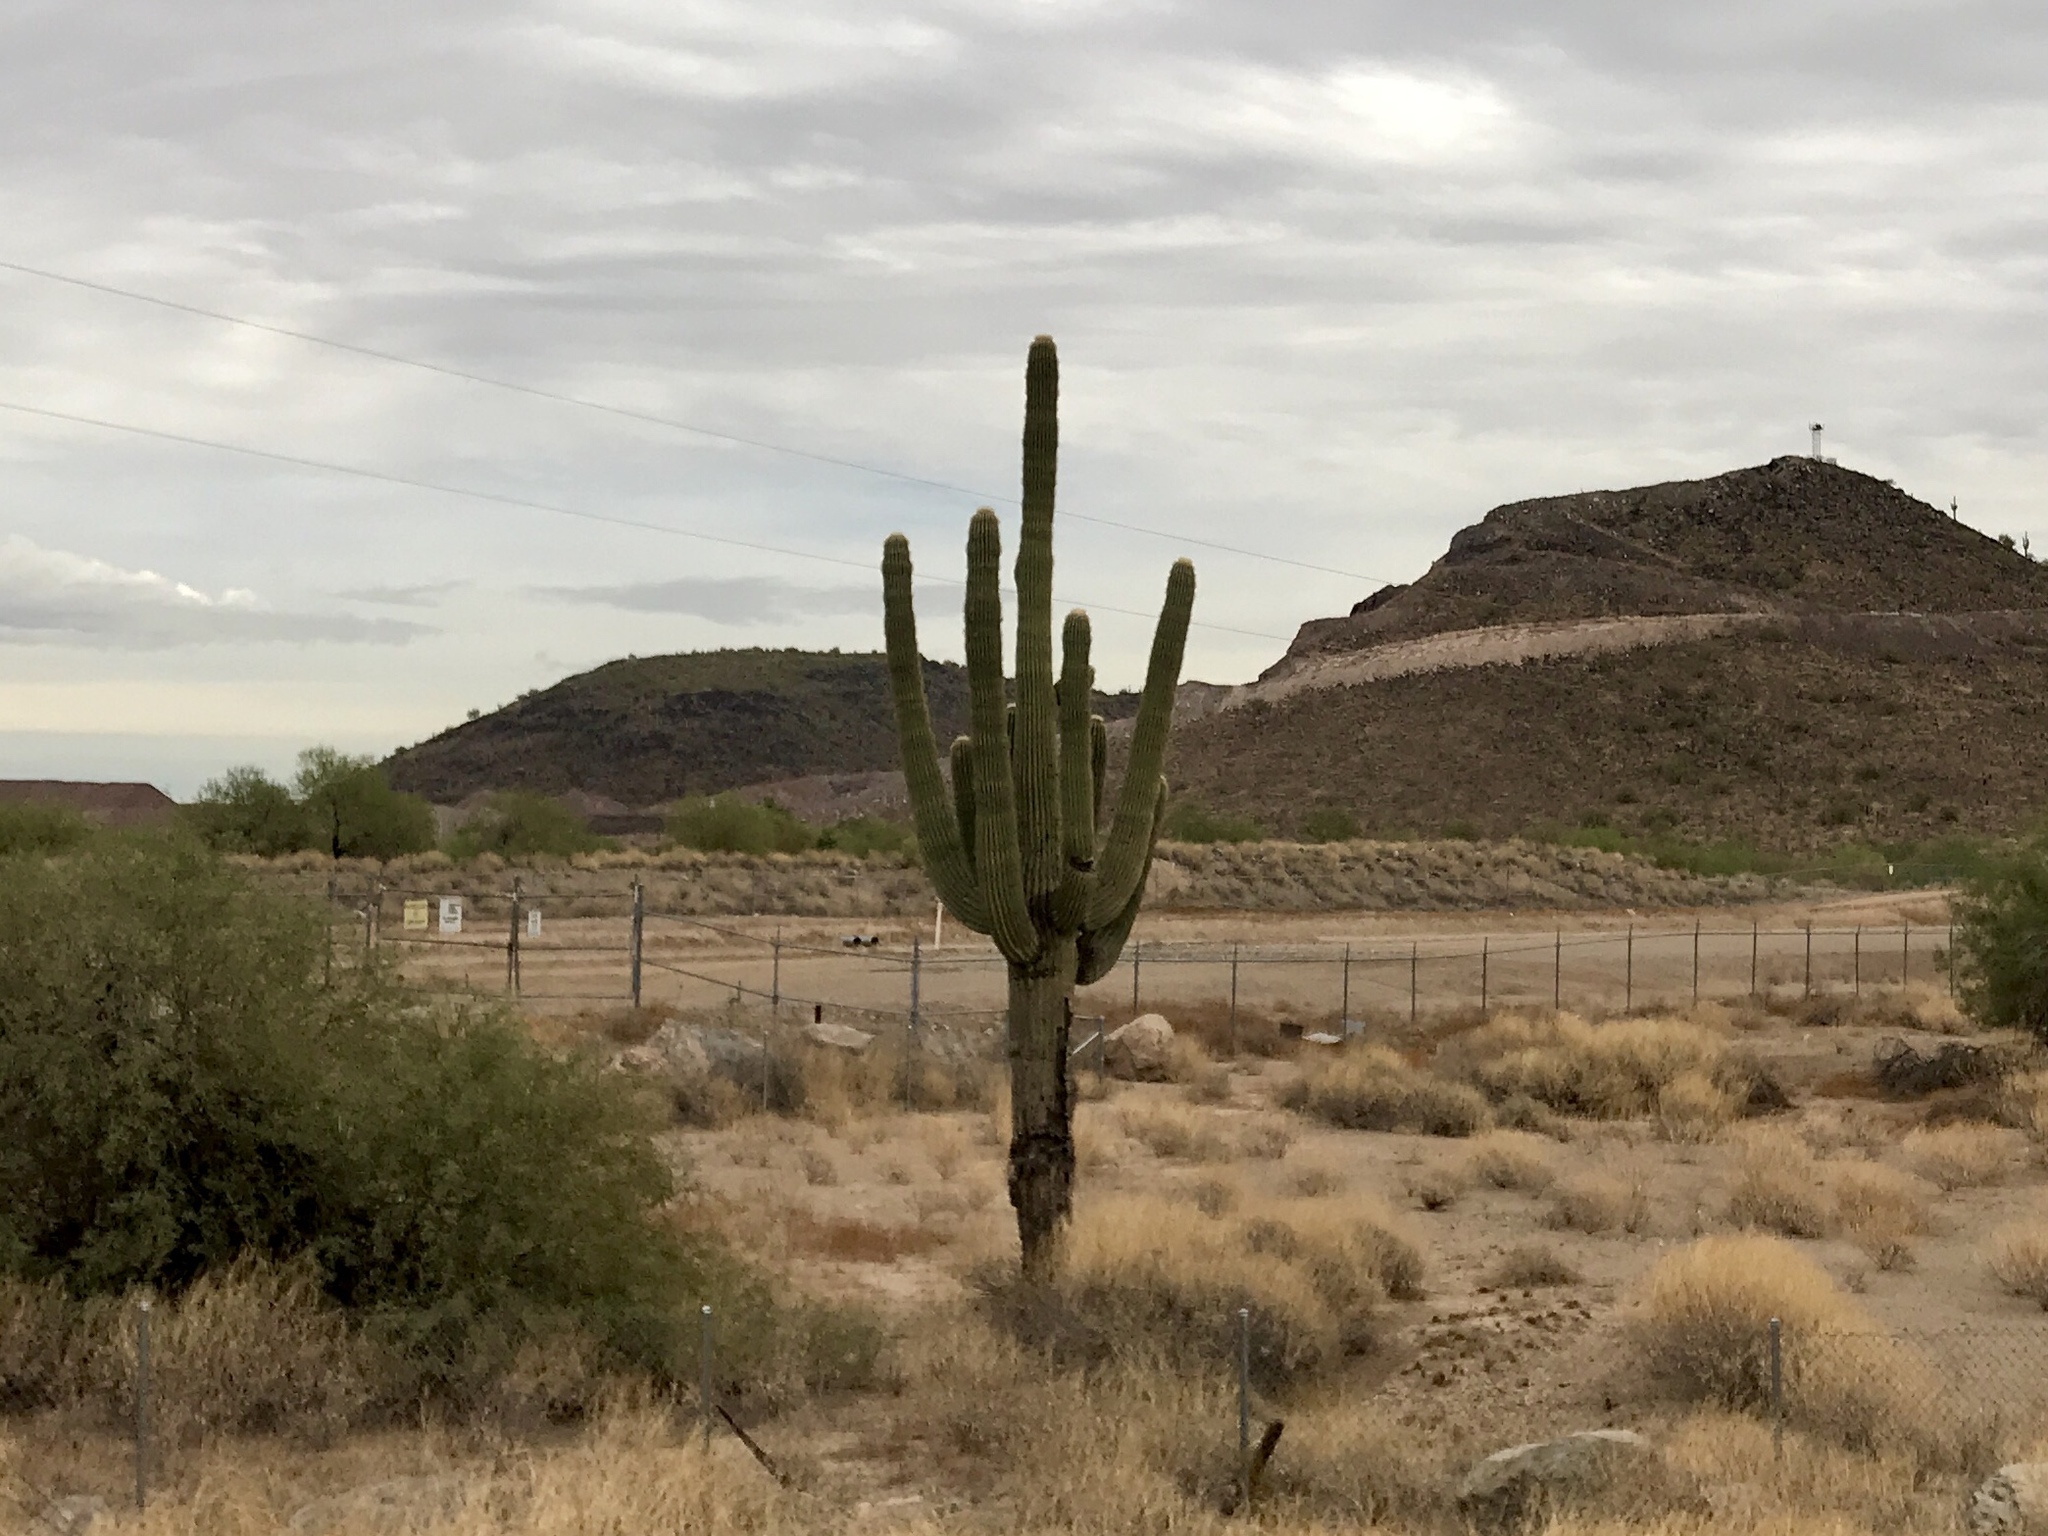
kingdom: Plantae
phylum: Tracheophyta
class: Magnoliopsida
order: Caryophyllales
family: Cactaceae
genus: Carnegiea
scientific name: Carnegiea gigantea
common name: Saguaro
